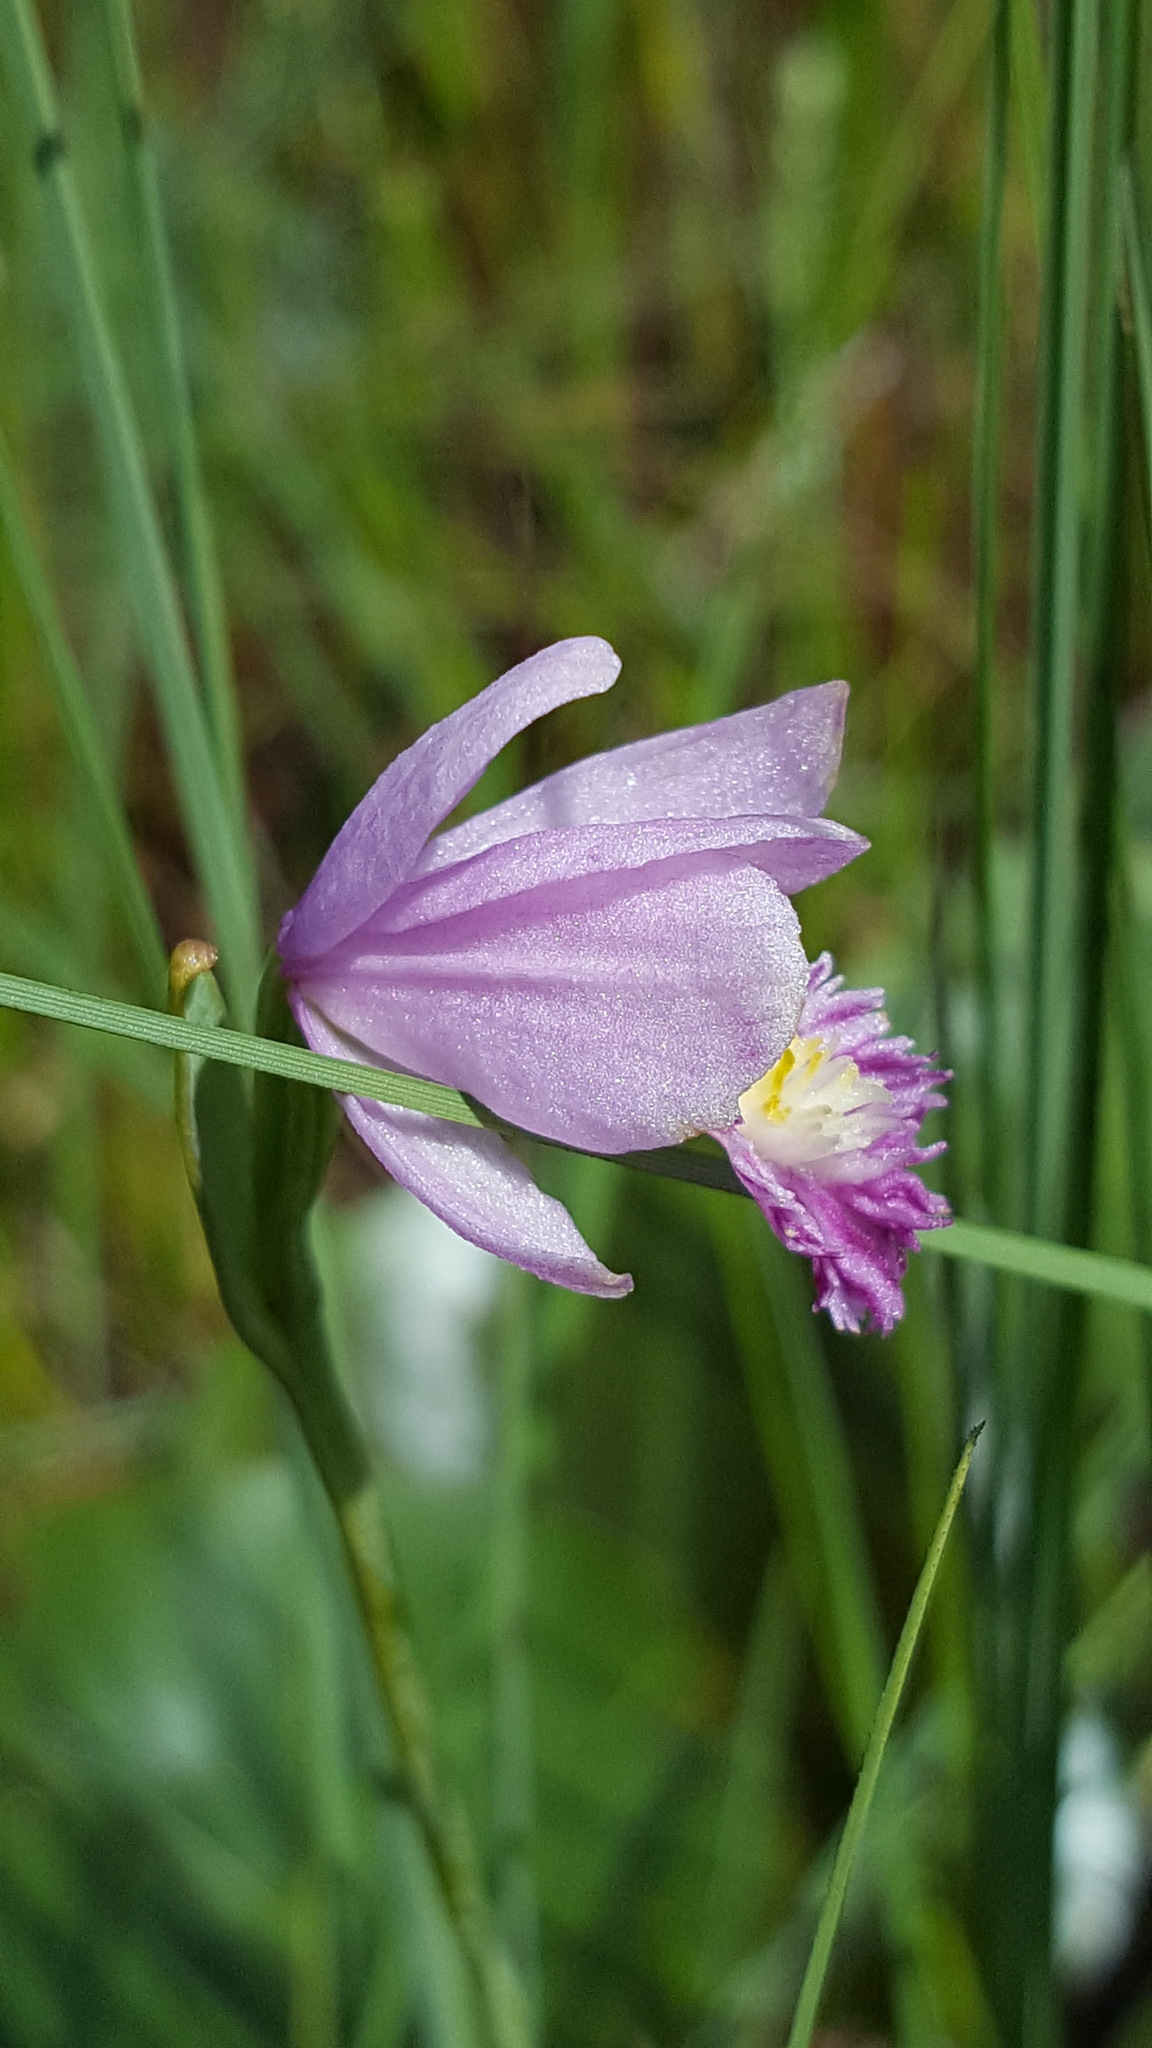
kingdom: Plantae
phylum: Tracheophyta
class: Liliopsida
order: Asparagales
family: Orchidaceae
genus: Pogonia
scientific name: Pogonia ophioglossoides
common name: Rose pogonia
